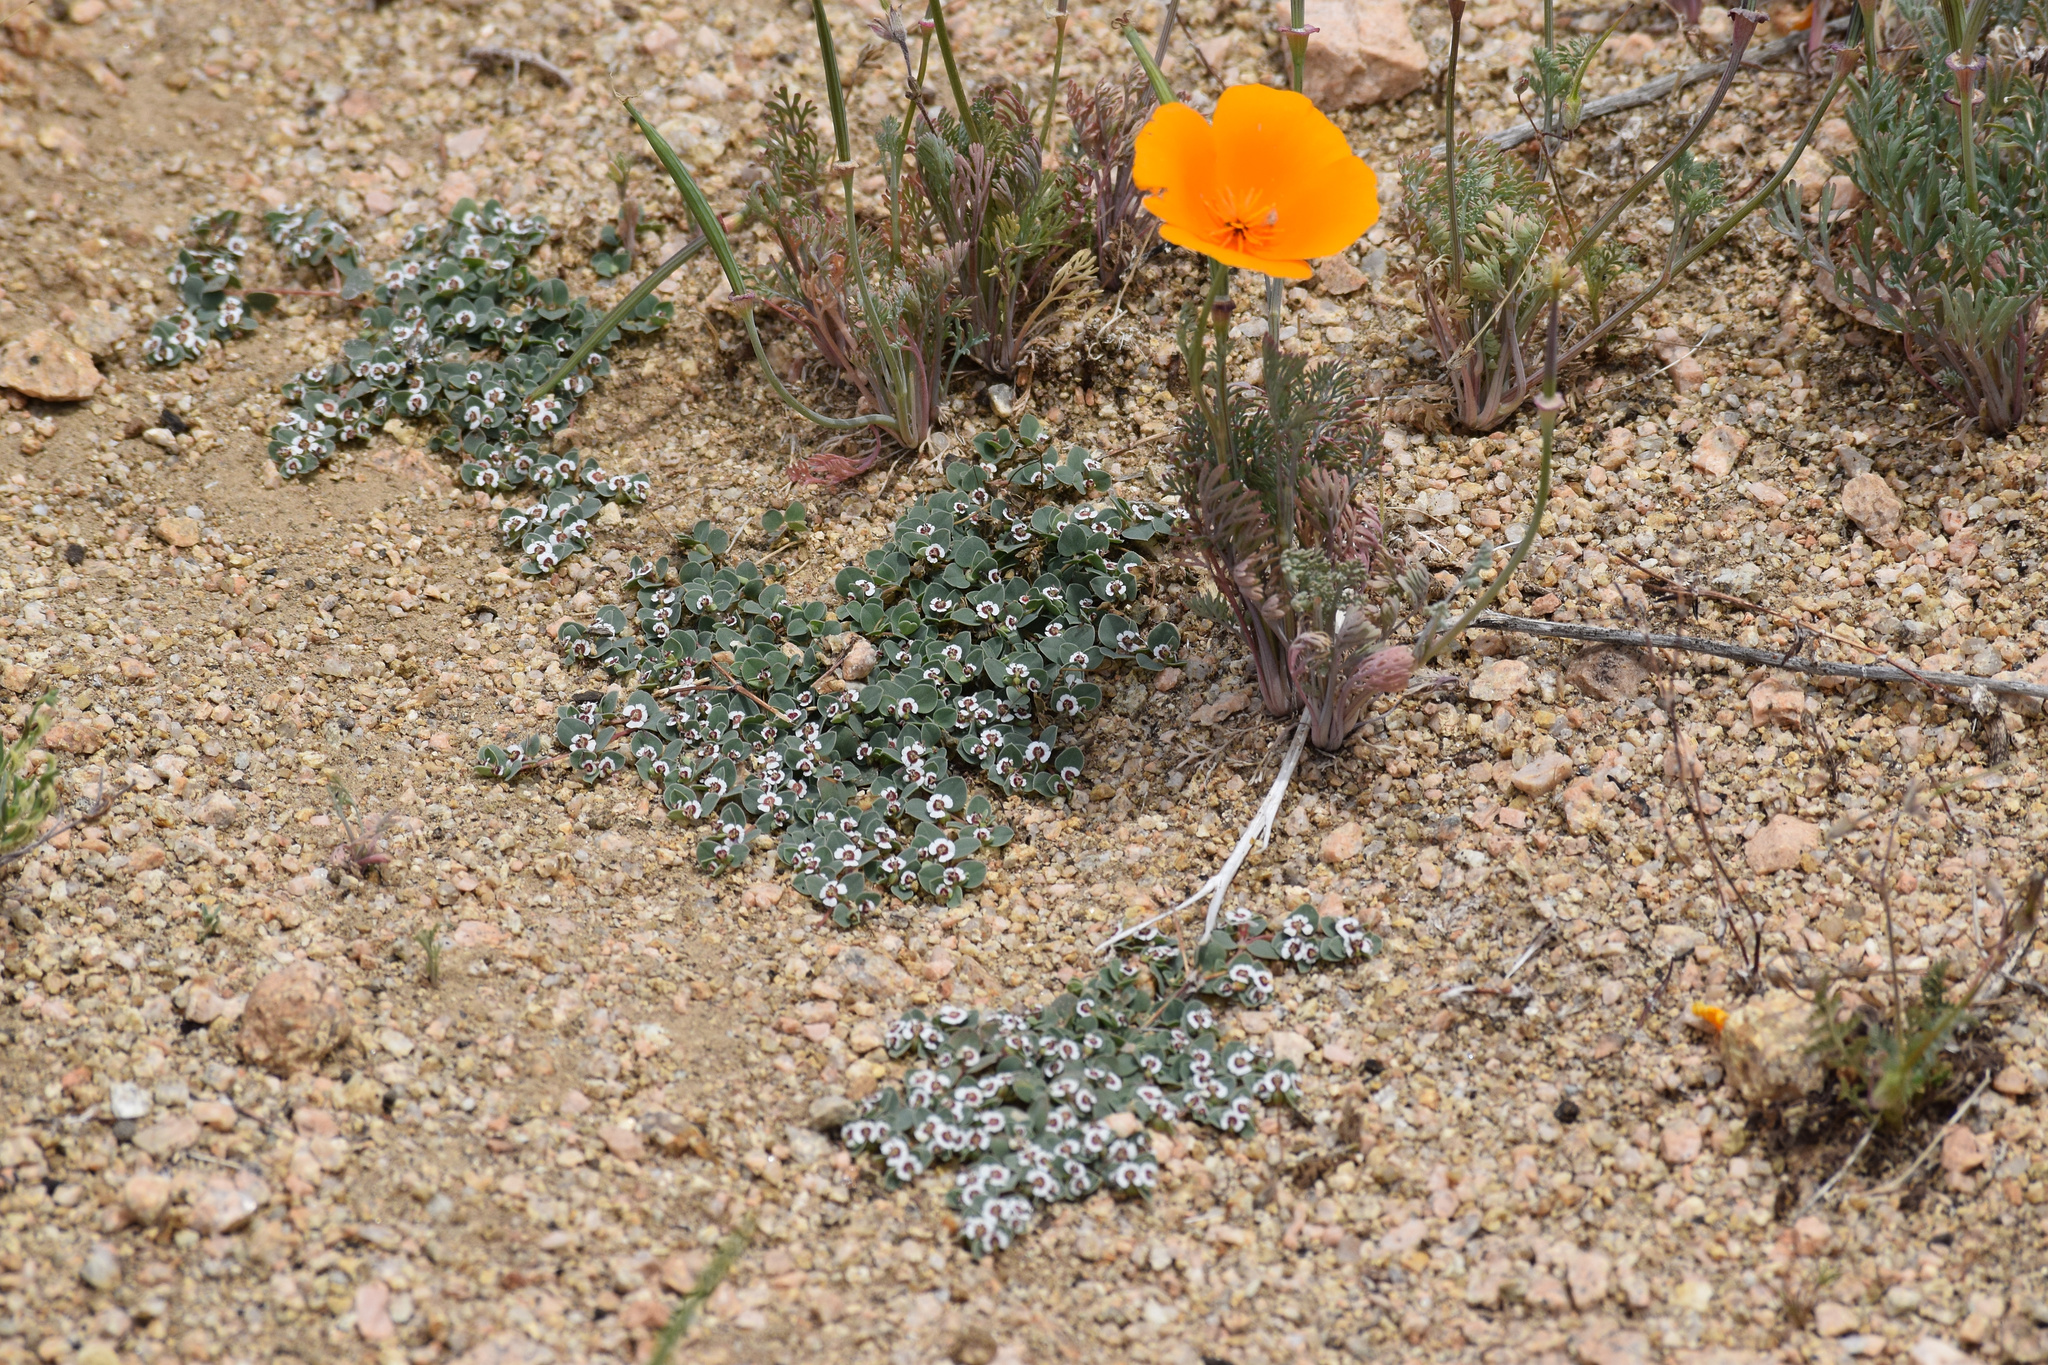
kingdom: Plantae
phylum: Tracheophyta
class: Magnoliopsida
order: Malpighiales
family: Euphorbiaceae
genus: Euphorbia
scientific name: Euphorbia albomarginata
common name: Whitemargin sandmat
